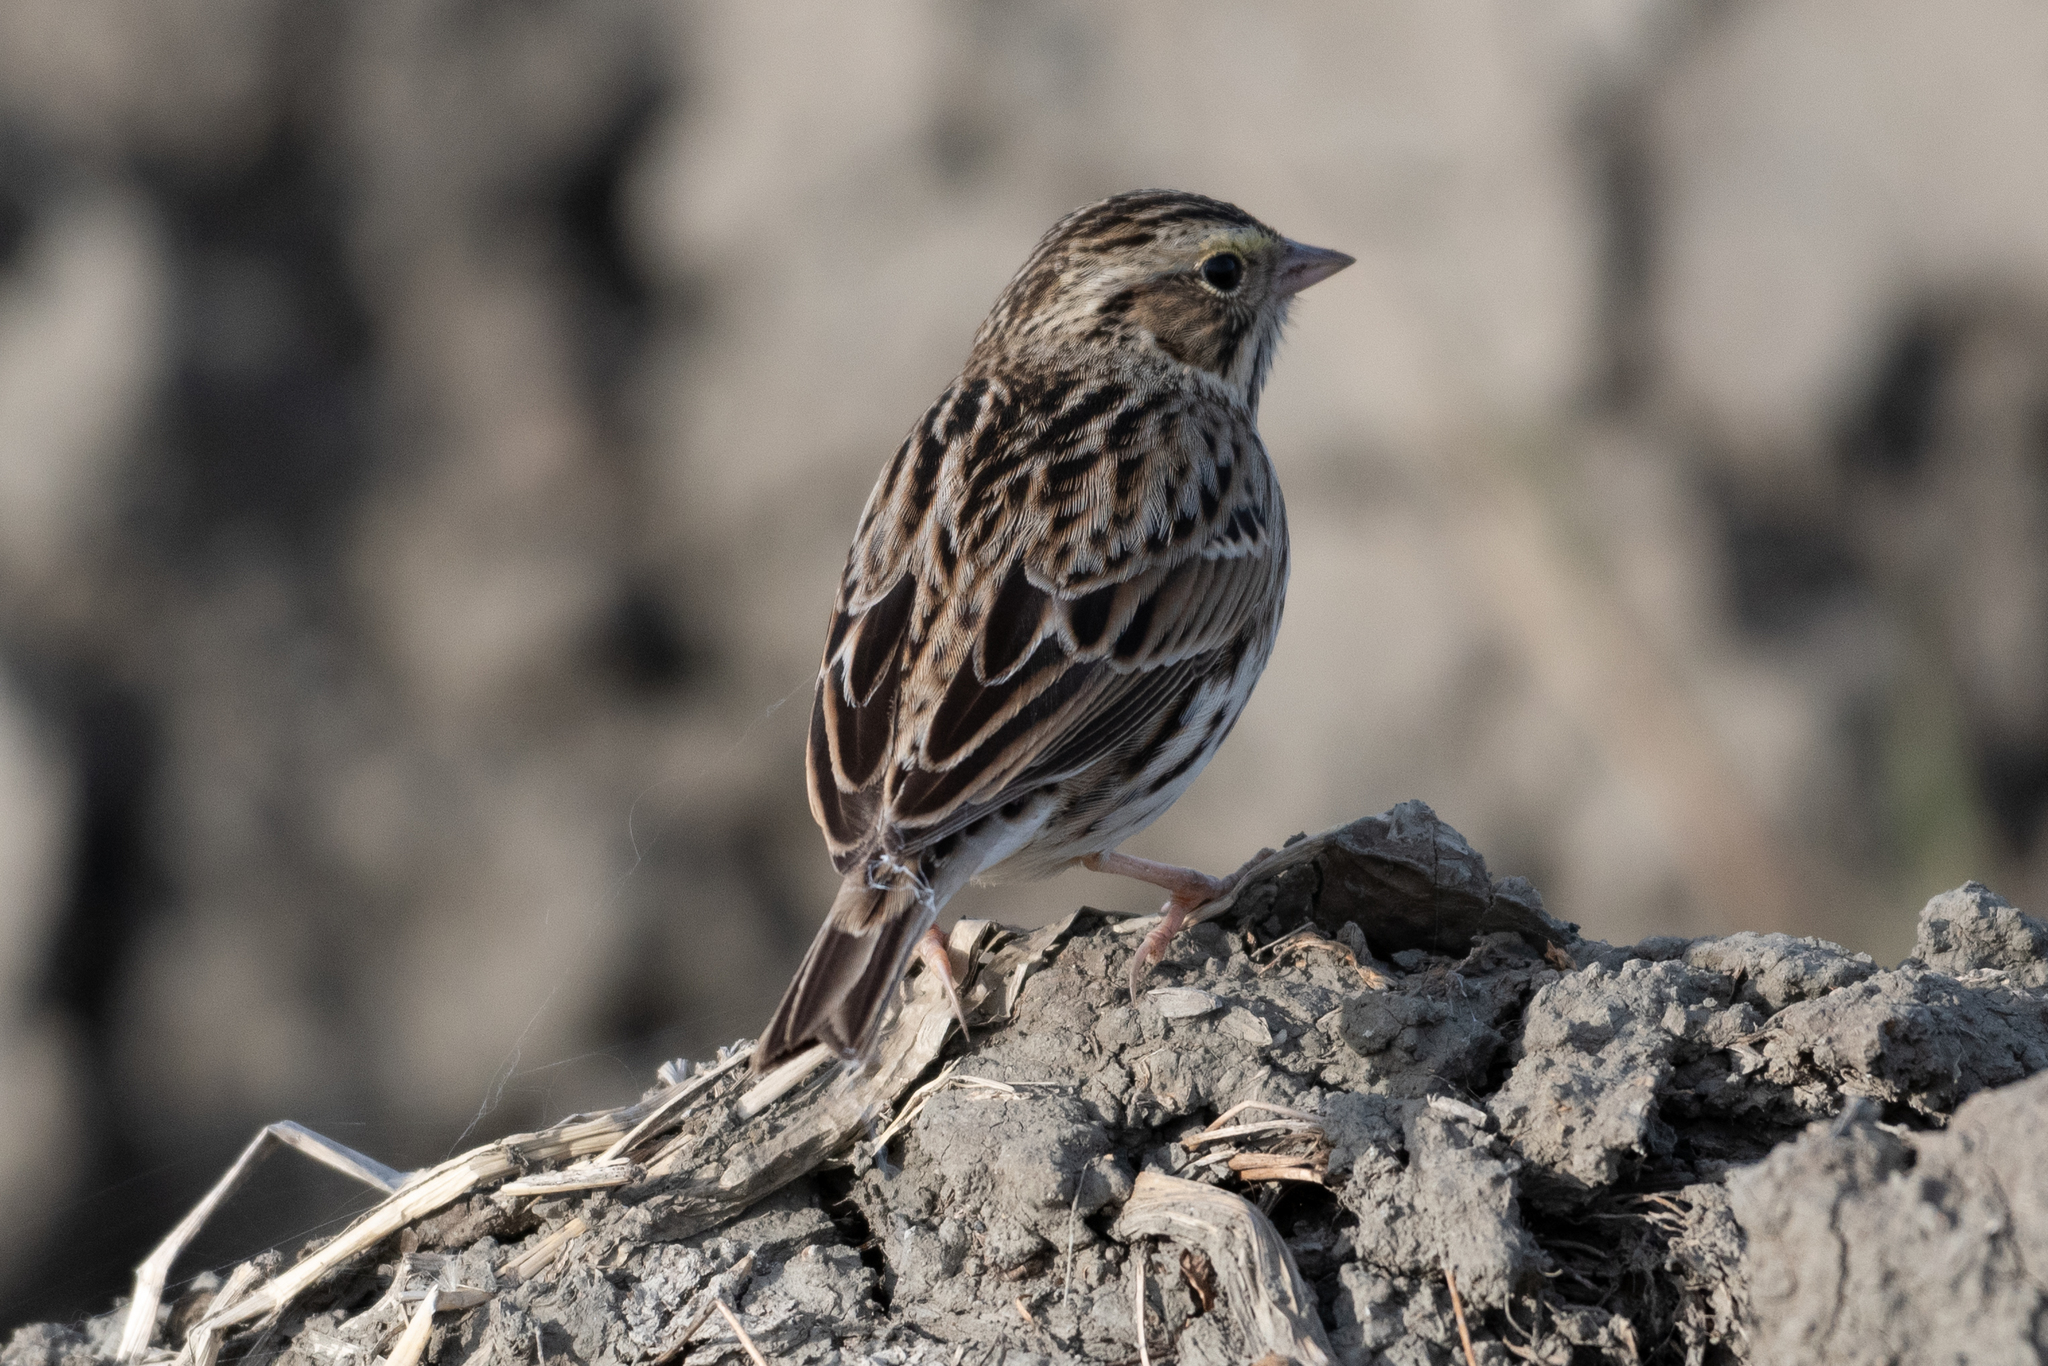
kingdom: Animalia
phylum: Chordata
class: Aves
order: Passeriformes
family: Passerellidae
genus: Passerculus
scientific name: Passerculus sandwichensis
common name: Savannah sparrow
